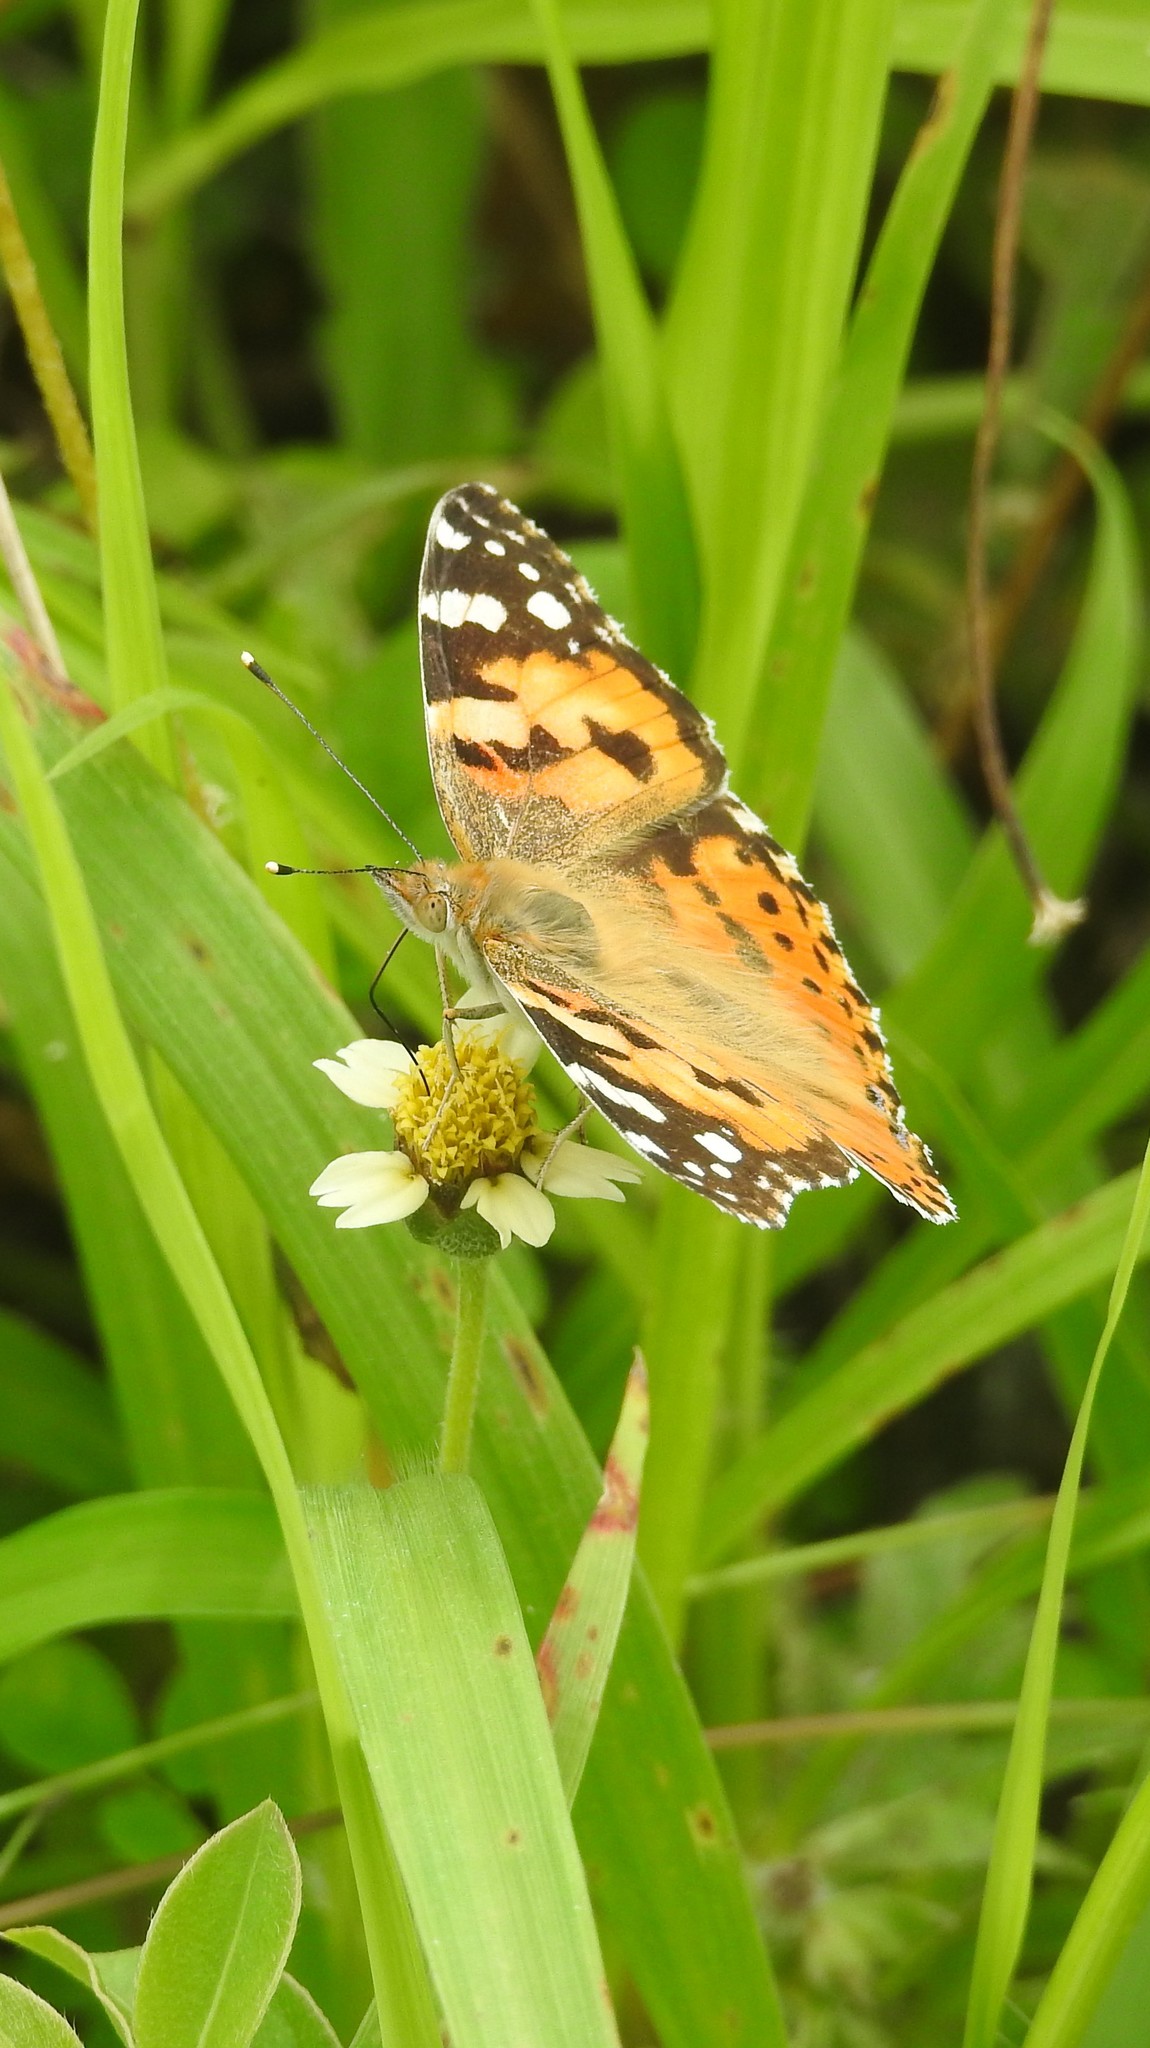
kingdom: Animalia
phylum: Arthropoda
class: Insecta
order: Lepidoptera
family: Nymphalidae
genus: Vanessa
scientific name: Vanessa cardui
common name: Painted lady
